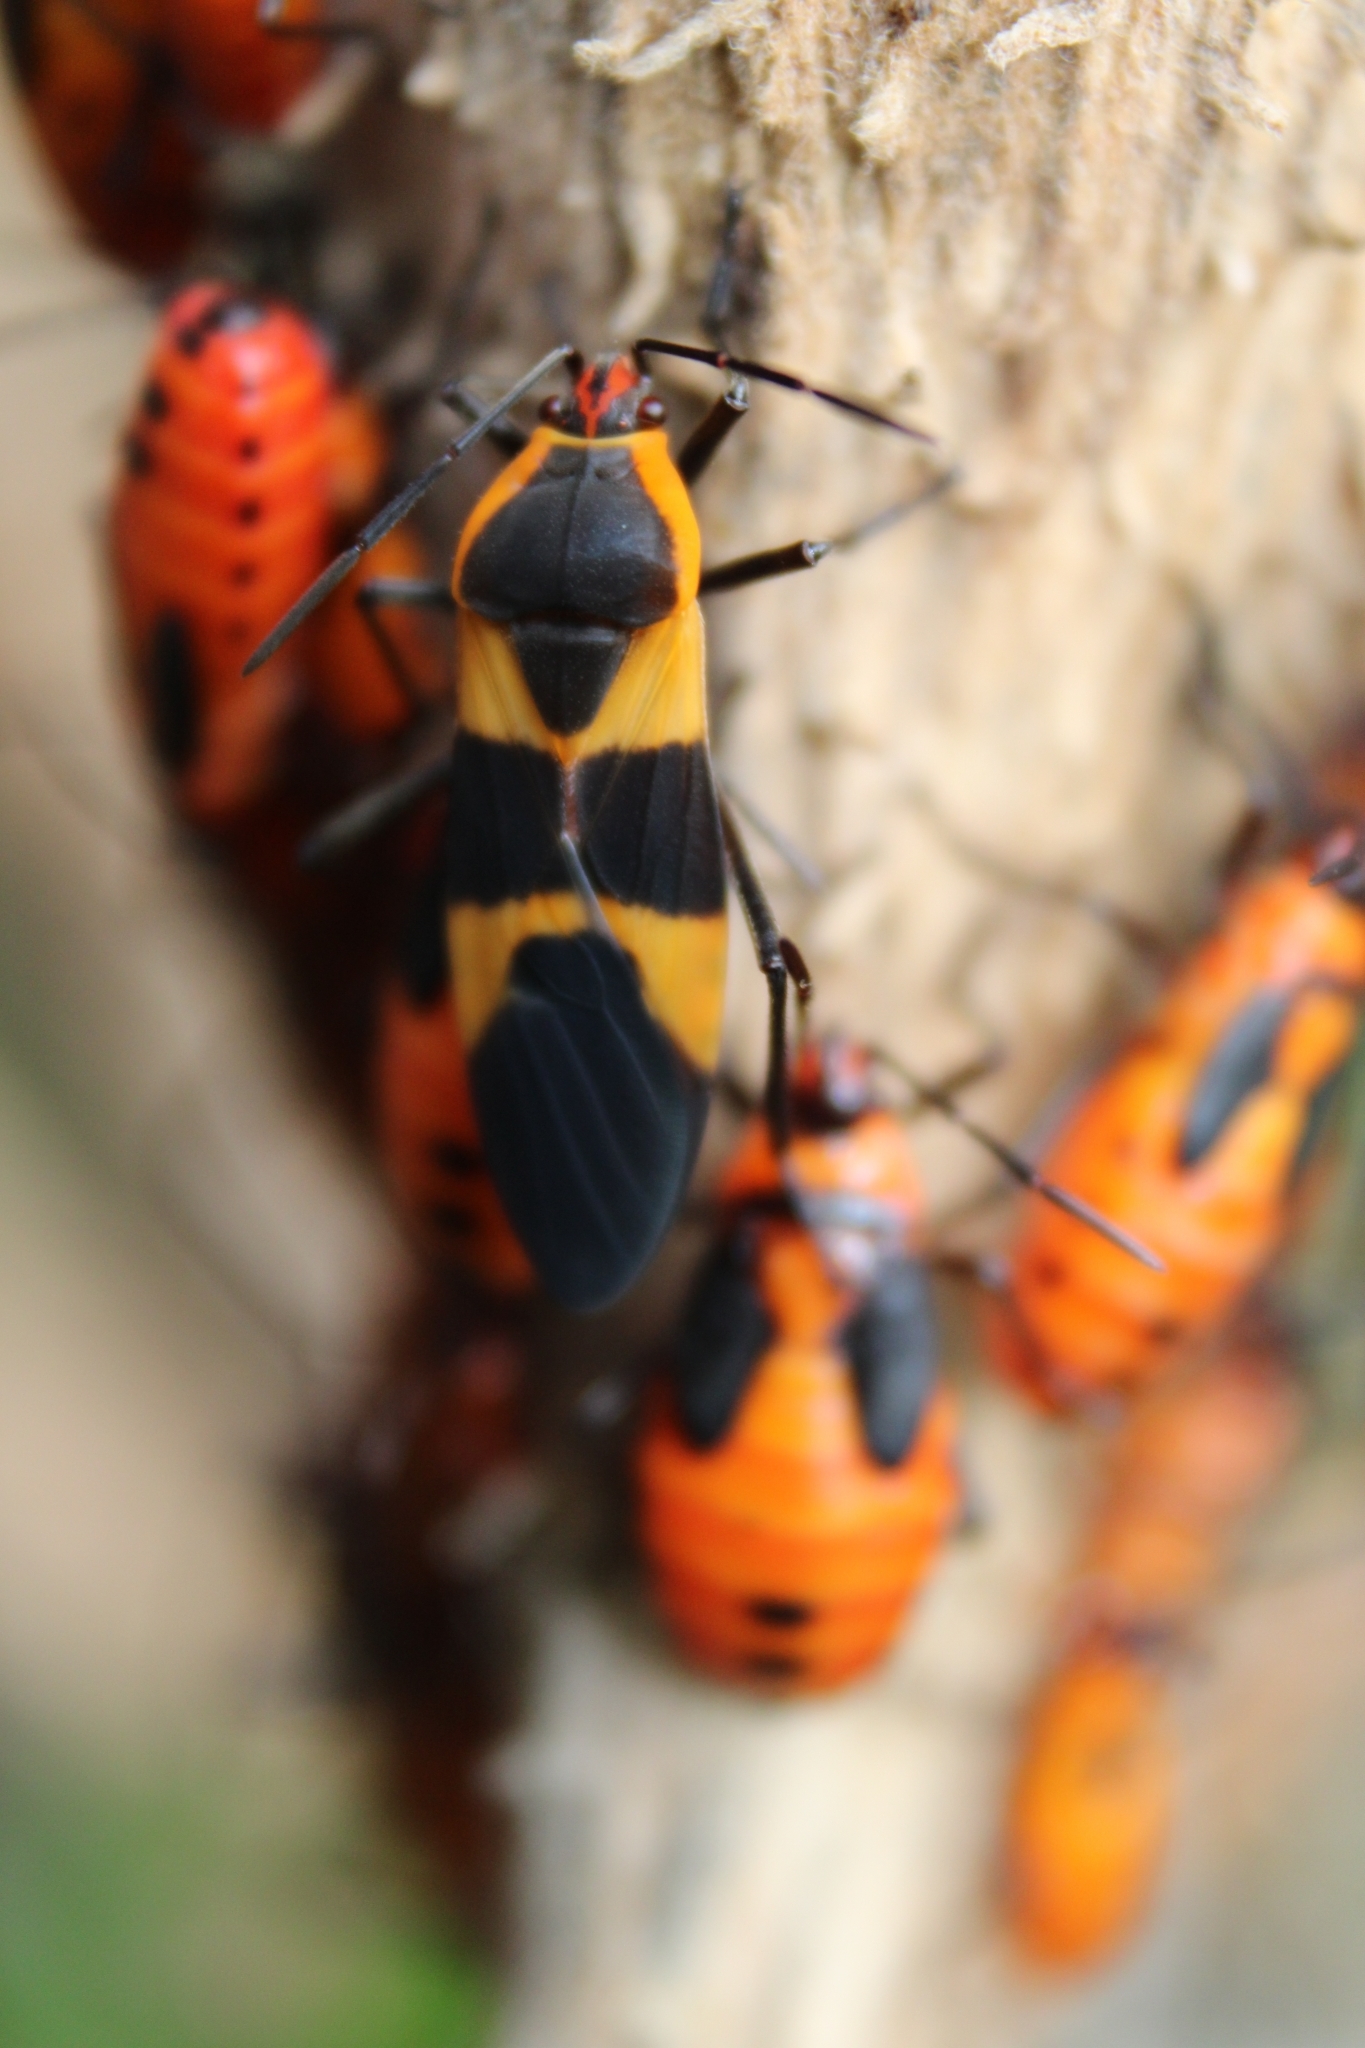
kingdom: Animalia
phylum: Arthropoda
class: Insecta
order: Hemiptera
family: Lygaeidae
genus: Oncopeltus
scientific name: Oncopeltus fasciatus
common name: Large milkweed bug
